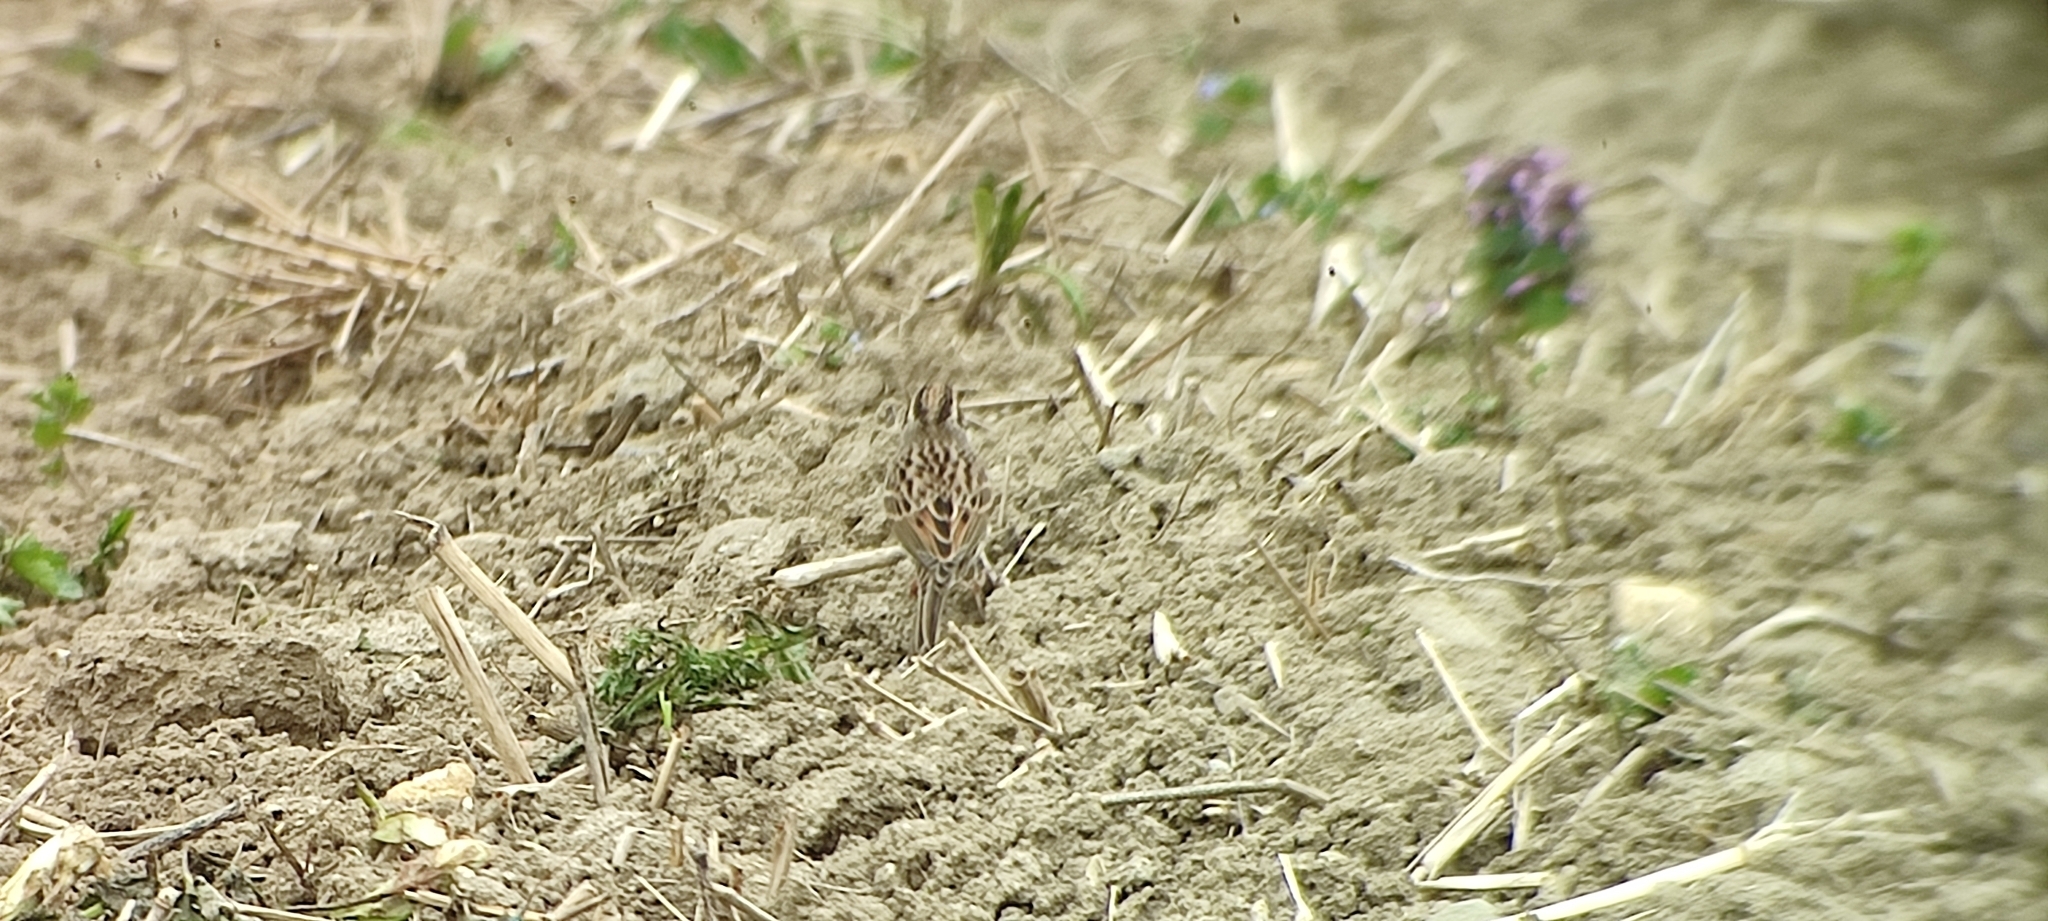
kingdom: Animalia
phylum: Chordata
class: Aves
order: Passeriformes
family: Emberizidae
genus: Emberiza
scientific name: Emberiza pusilla
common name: Little bunting
